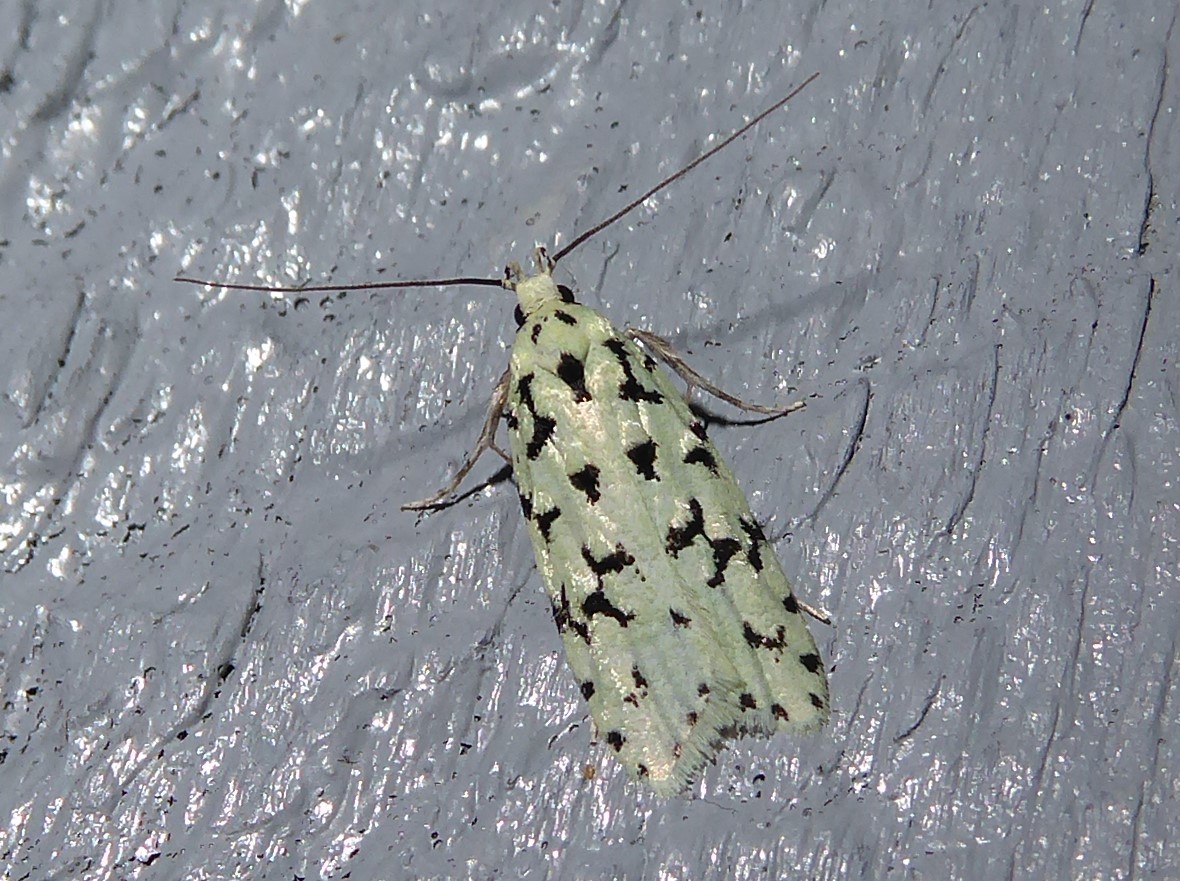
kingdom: Animalia
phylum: Arthropoda
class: Insecta
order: Lepidoptera
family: Oecophoridae
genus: Izatha
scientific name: Izatha huttoni
